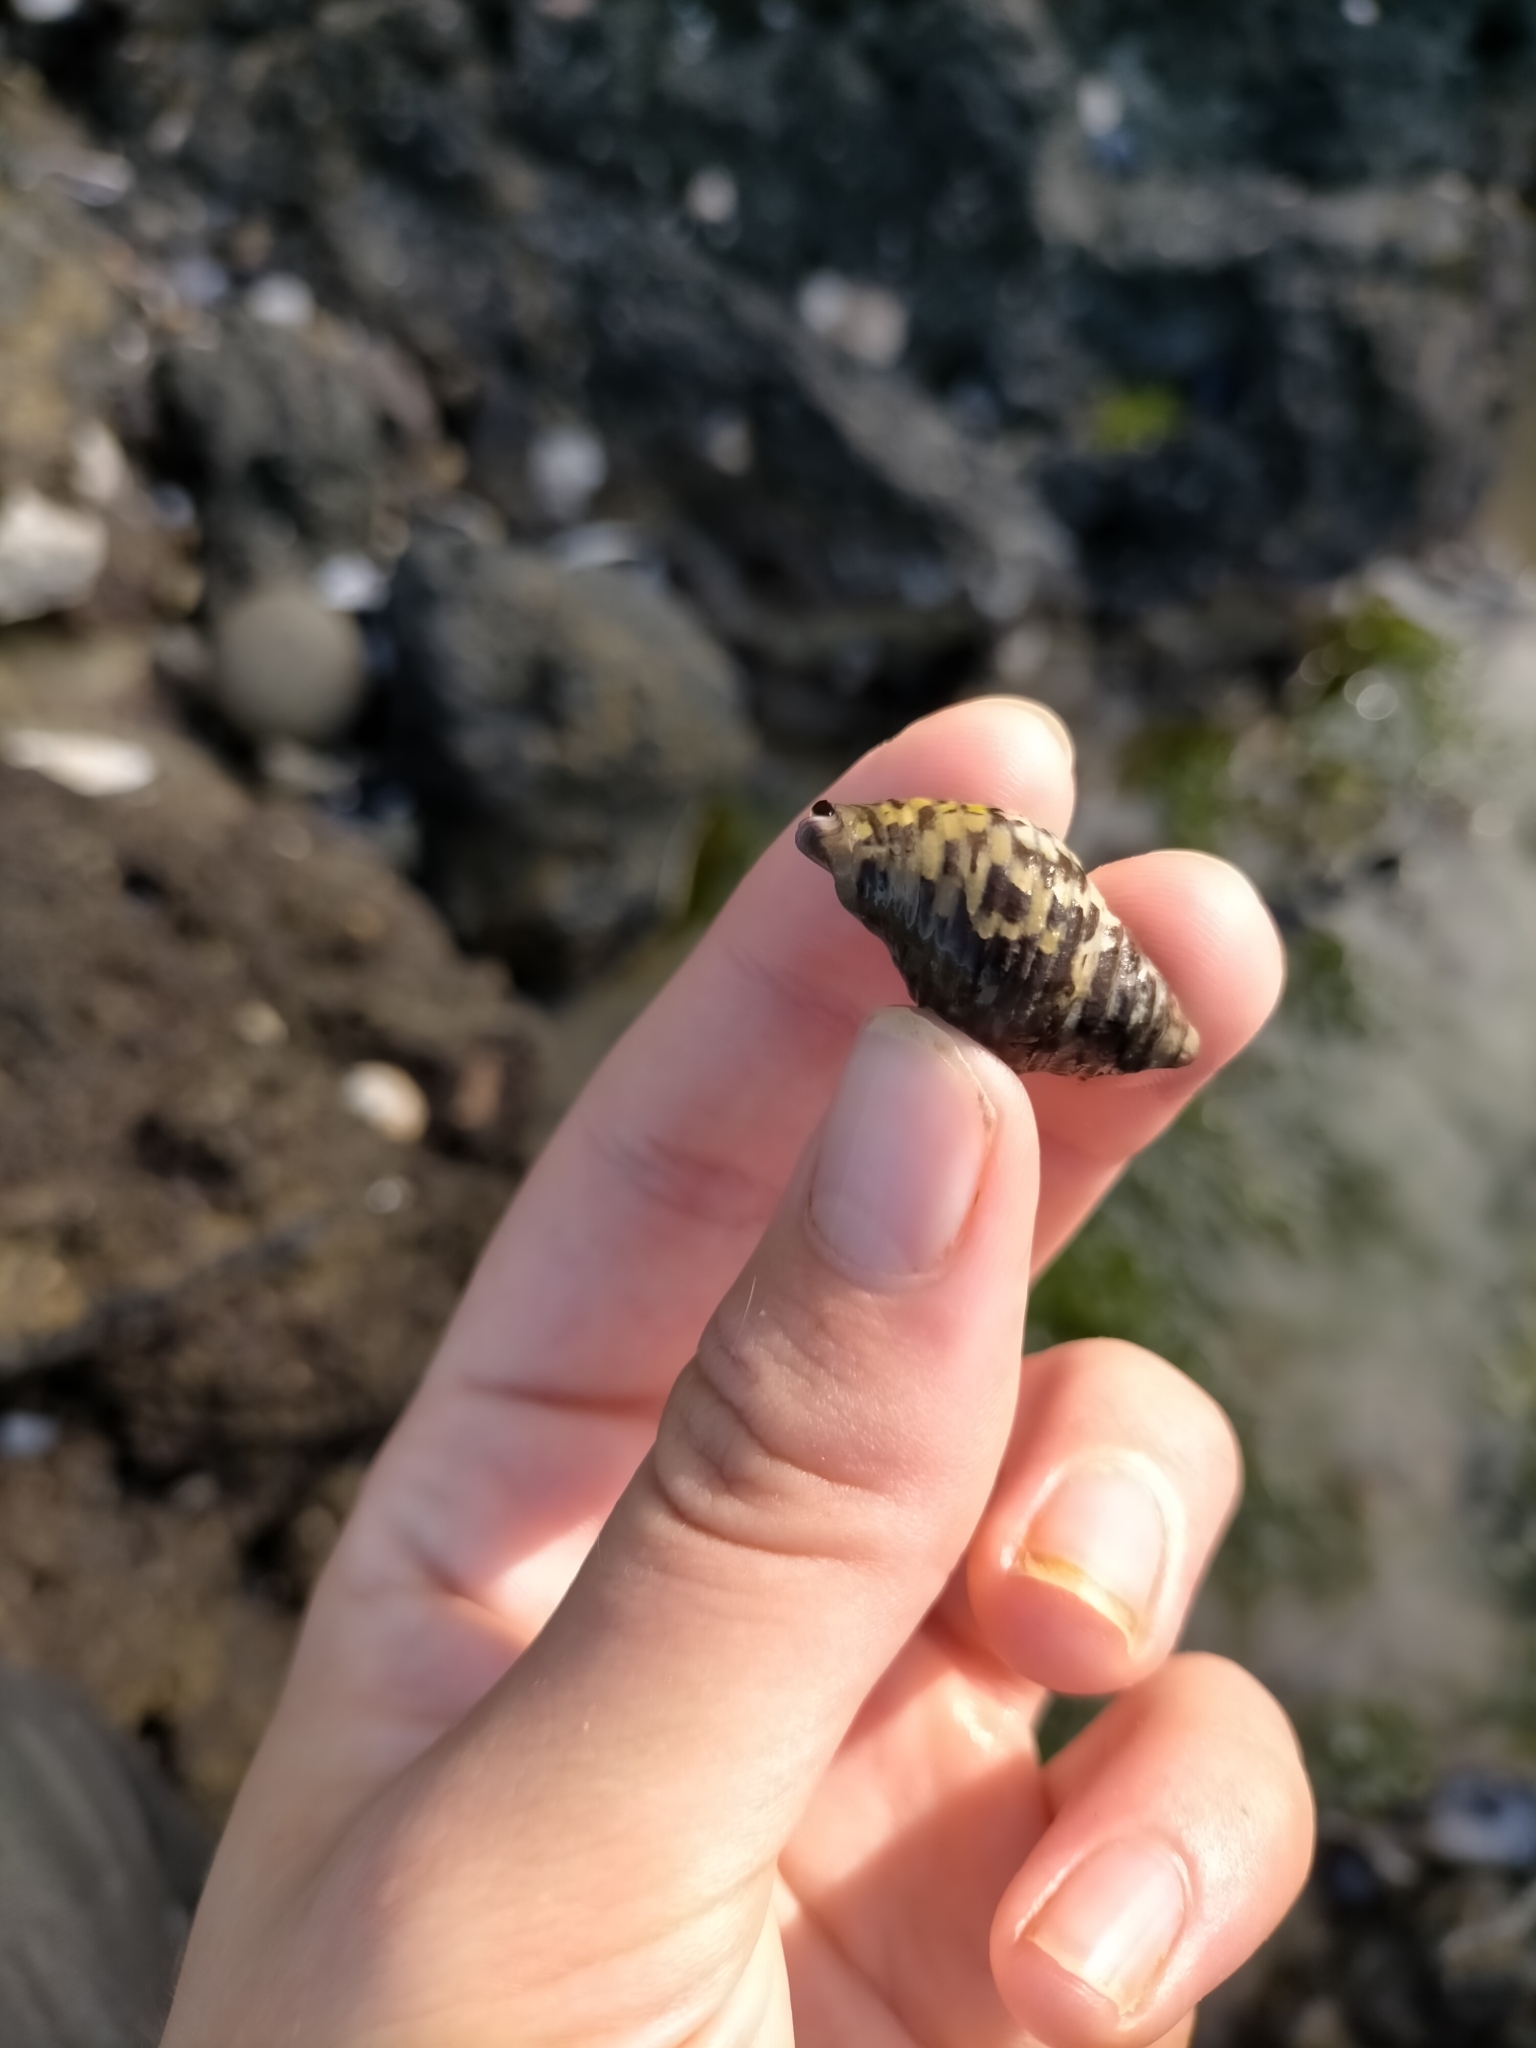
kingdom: Animalia
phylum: Mollusca
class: Gastropoda
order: Neogastropoda
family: Cominellidae
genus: Cominella
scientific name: Cominella lineolata
